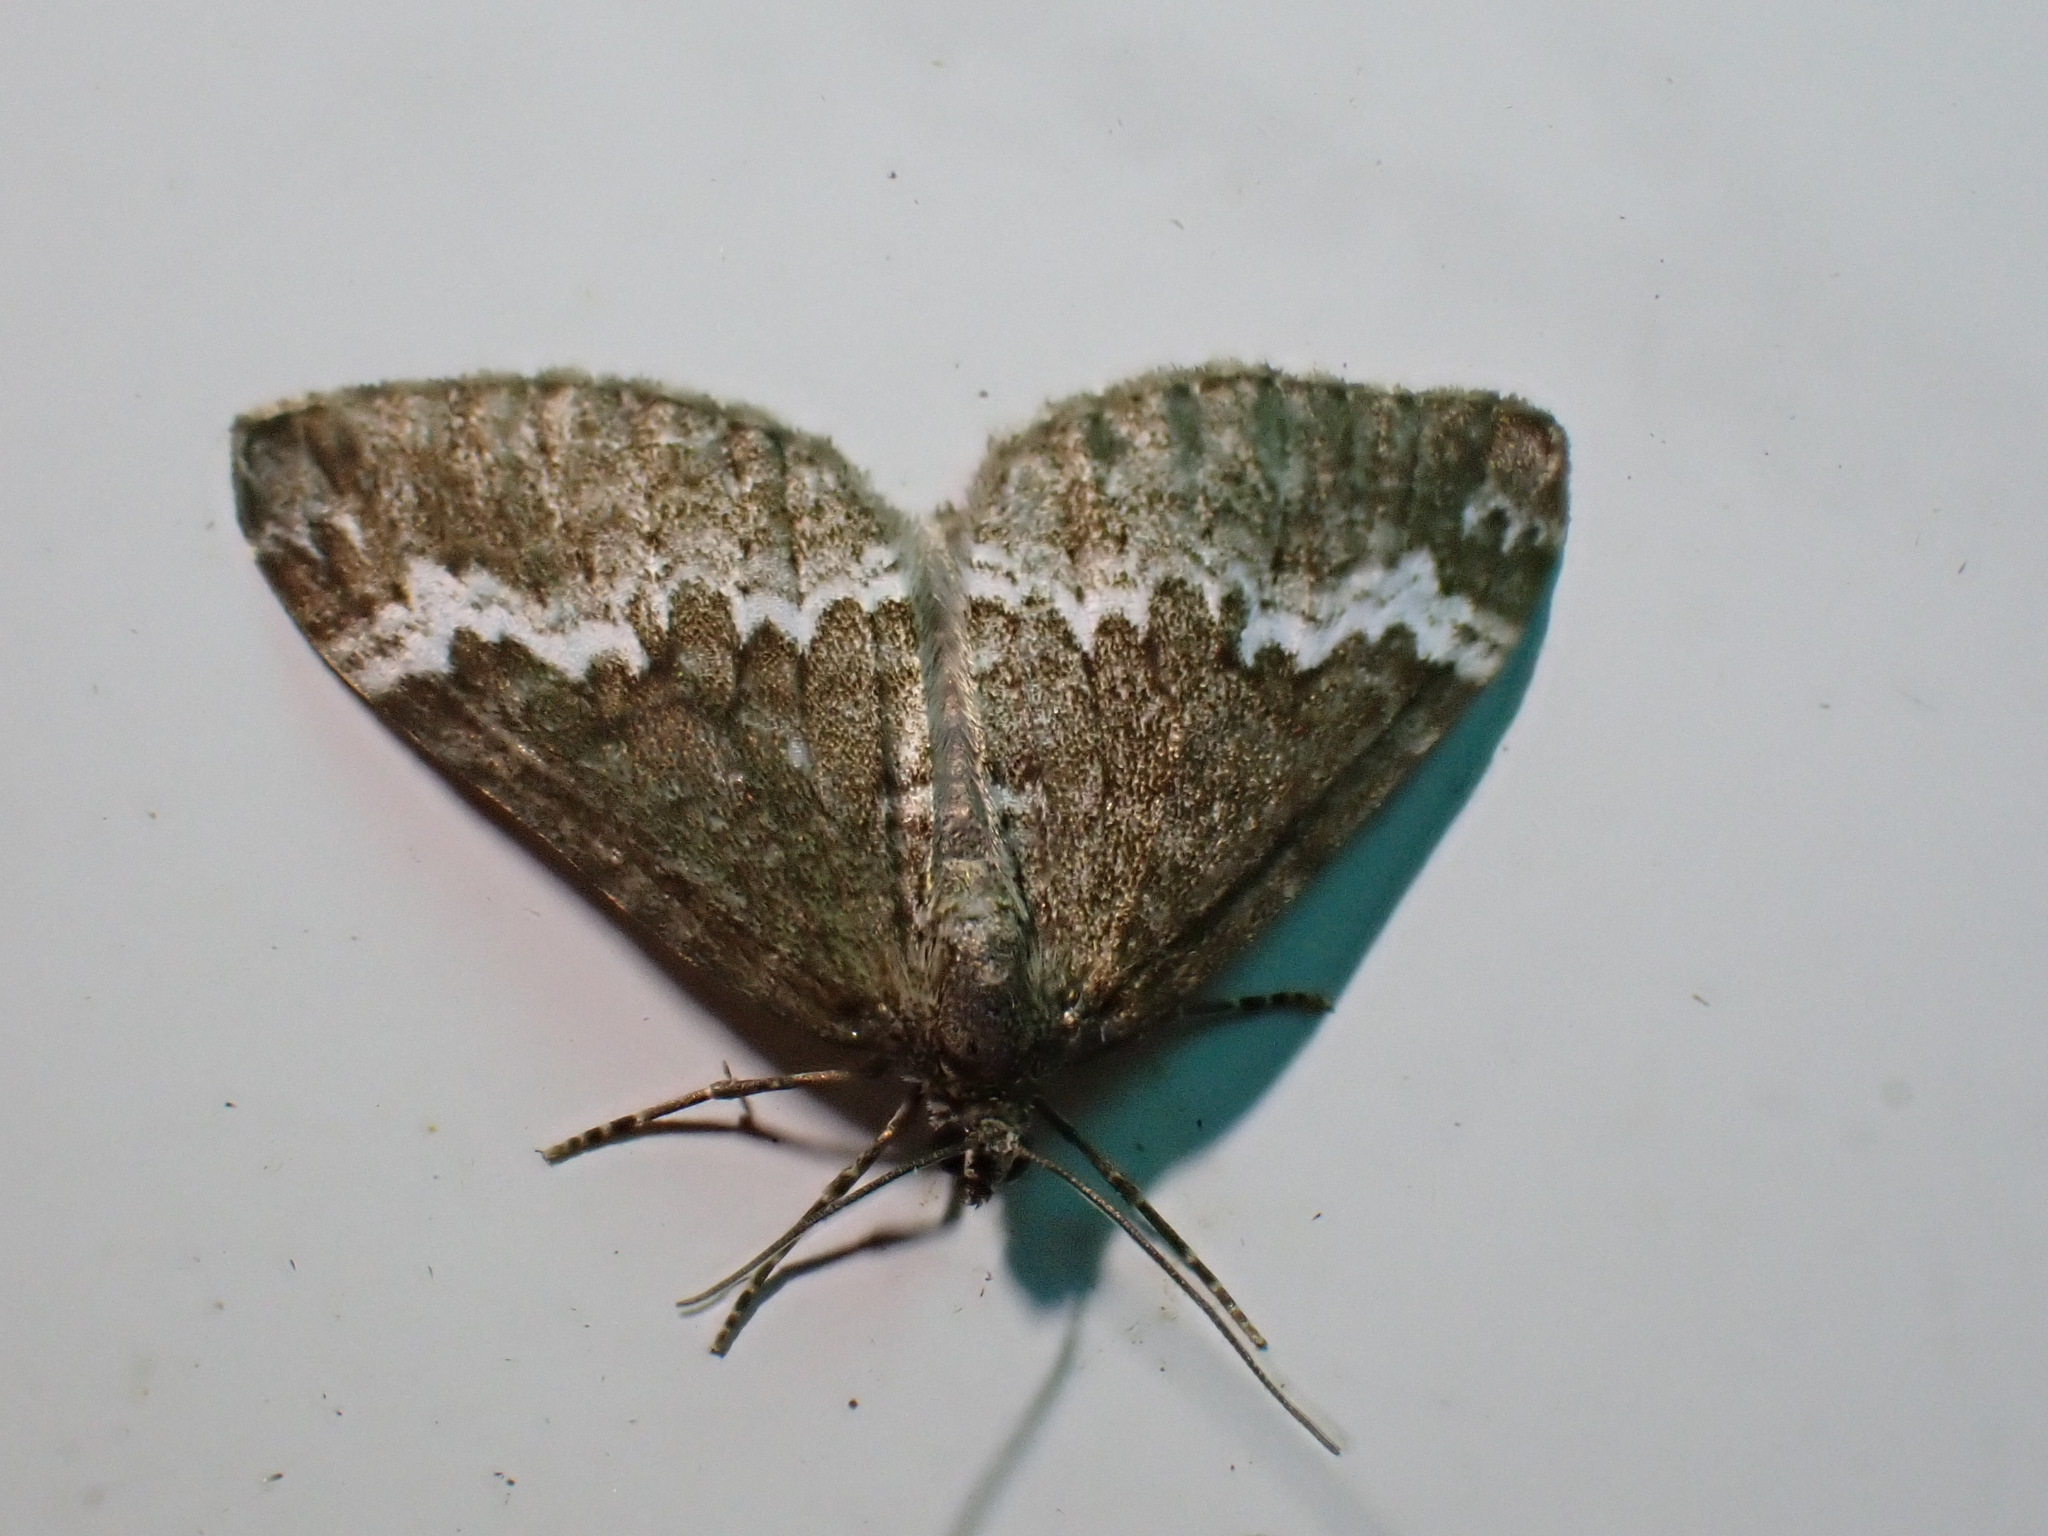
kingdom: Animalia
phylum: Arthropoda
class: Insecta
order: Lepidoptera
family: Geometridae
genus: Perizoma
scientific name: Perizoma alchemillata
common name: Small rivulet
